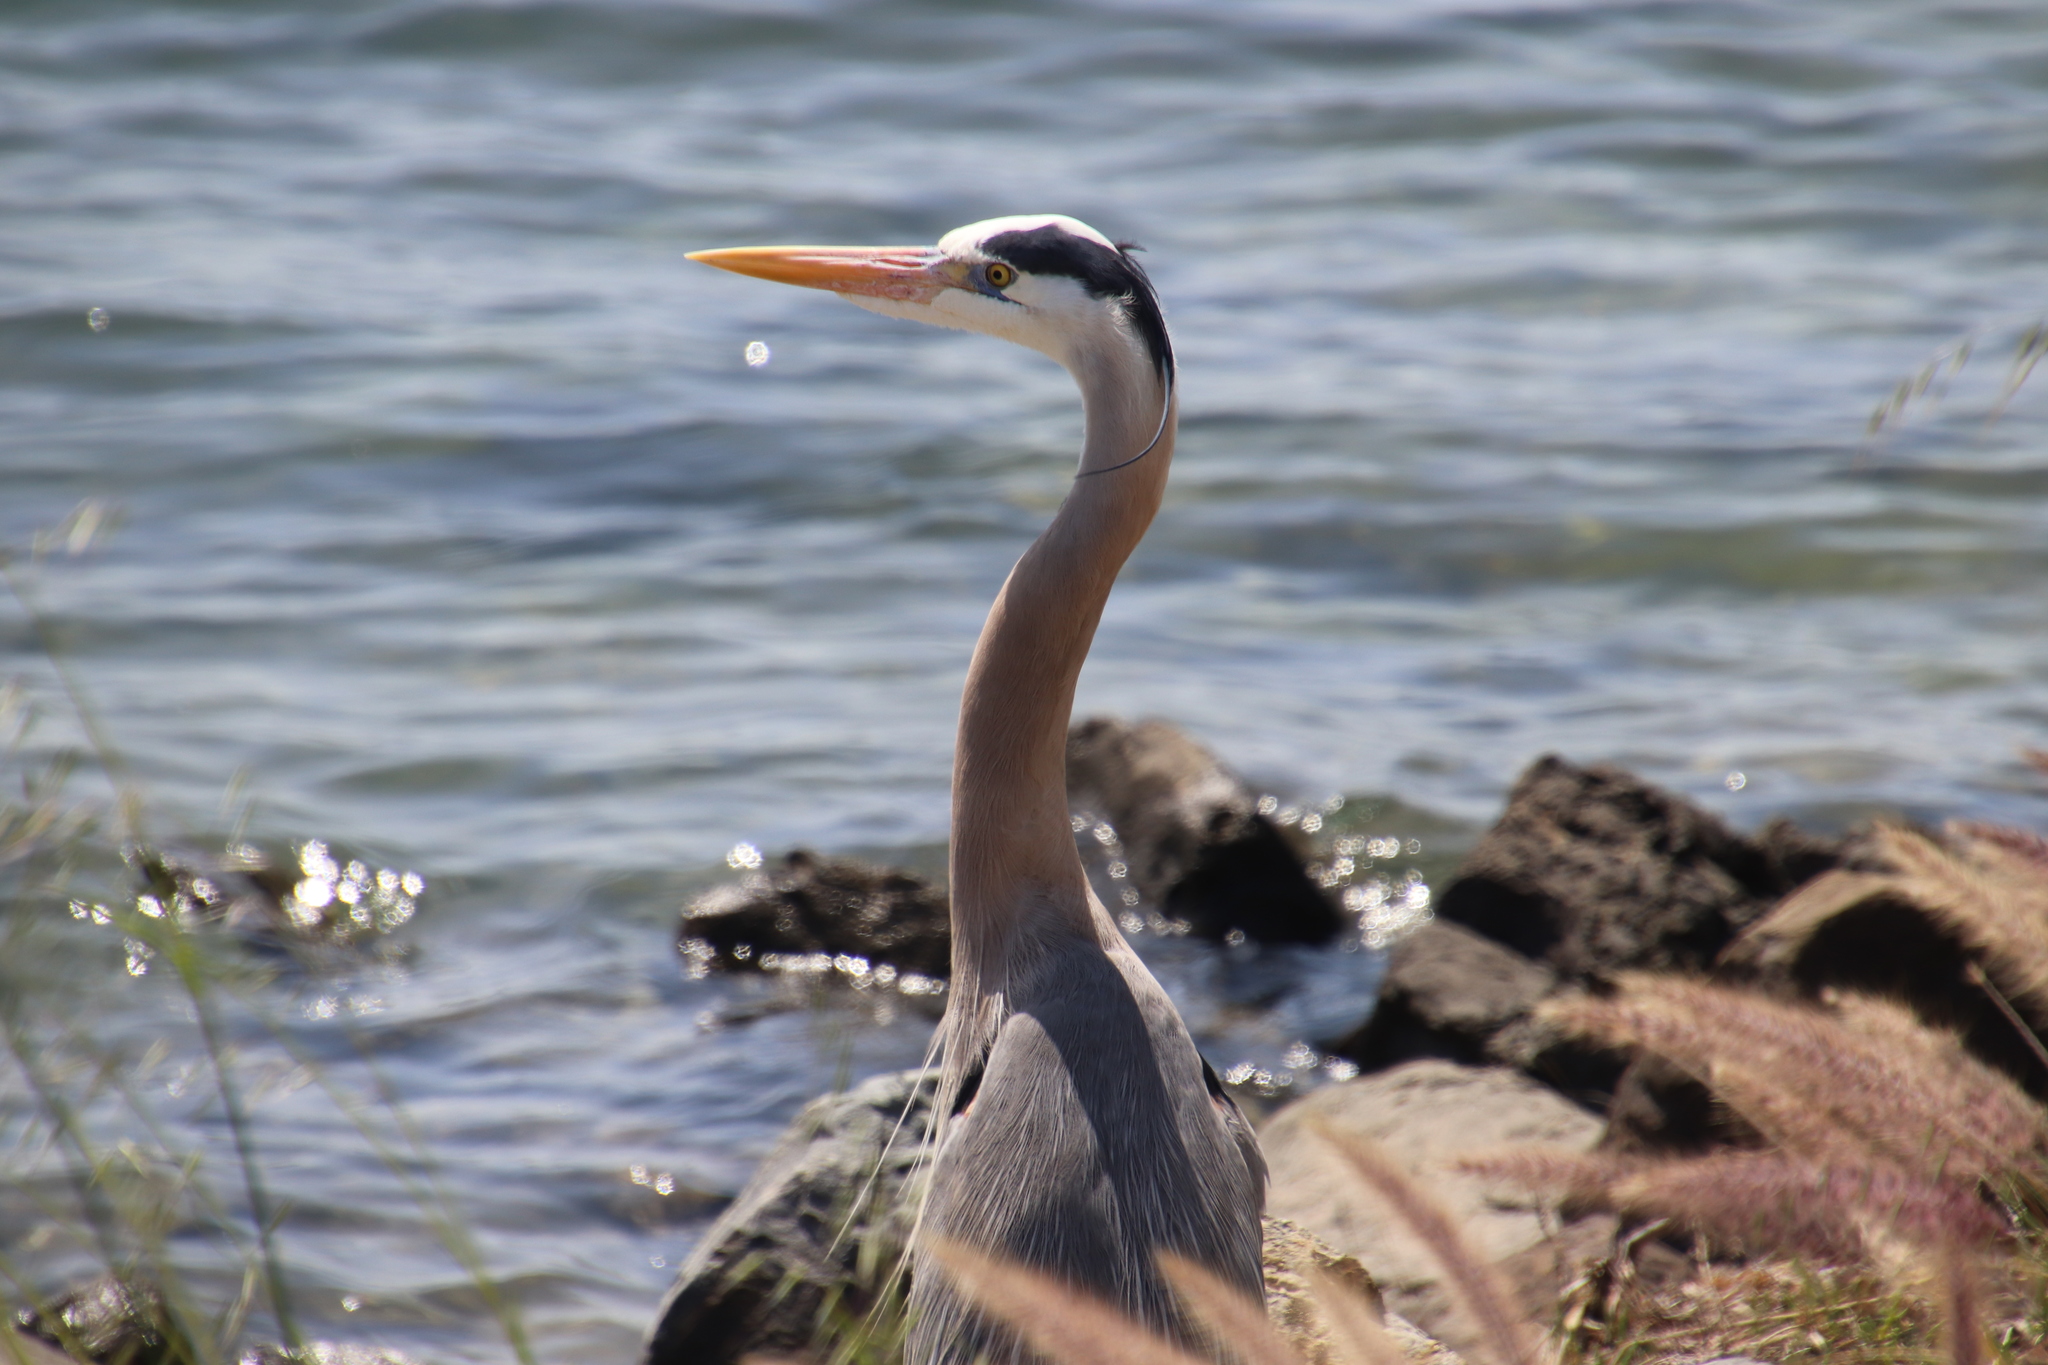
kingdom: Animalia
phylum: Chordata
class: Aves
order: Pelecaniformes
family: Ardeidae
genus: Ardea
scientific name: Ardea herodias
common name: Great blue heron
